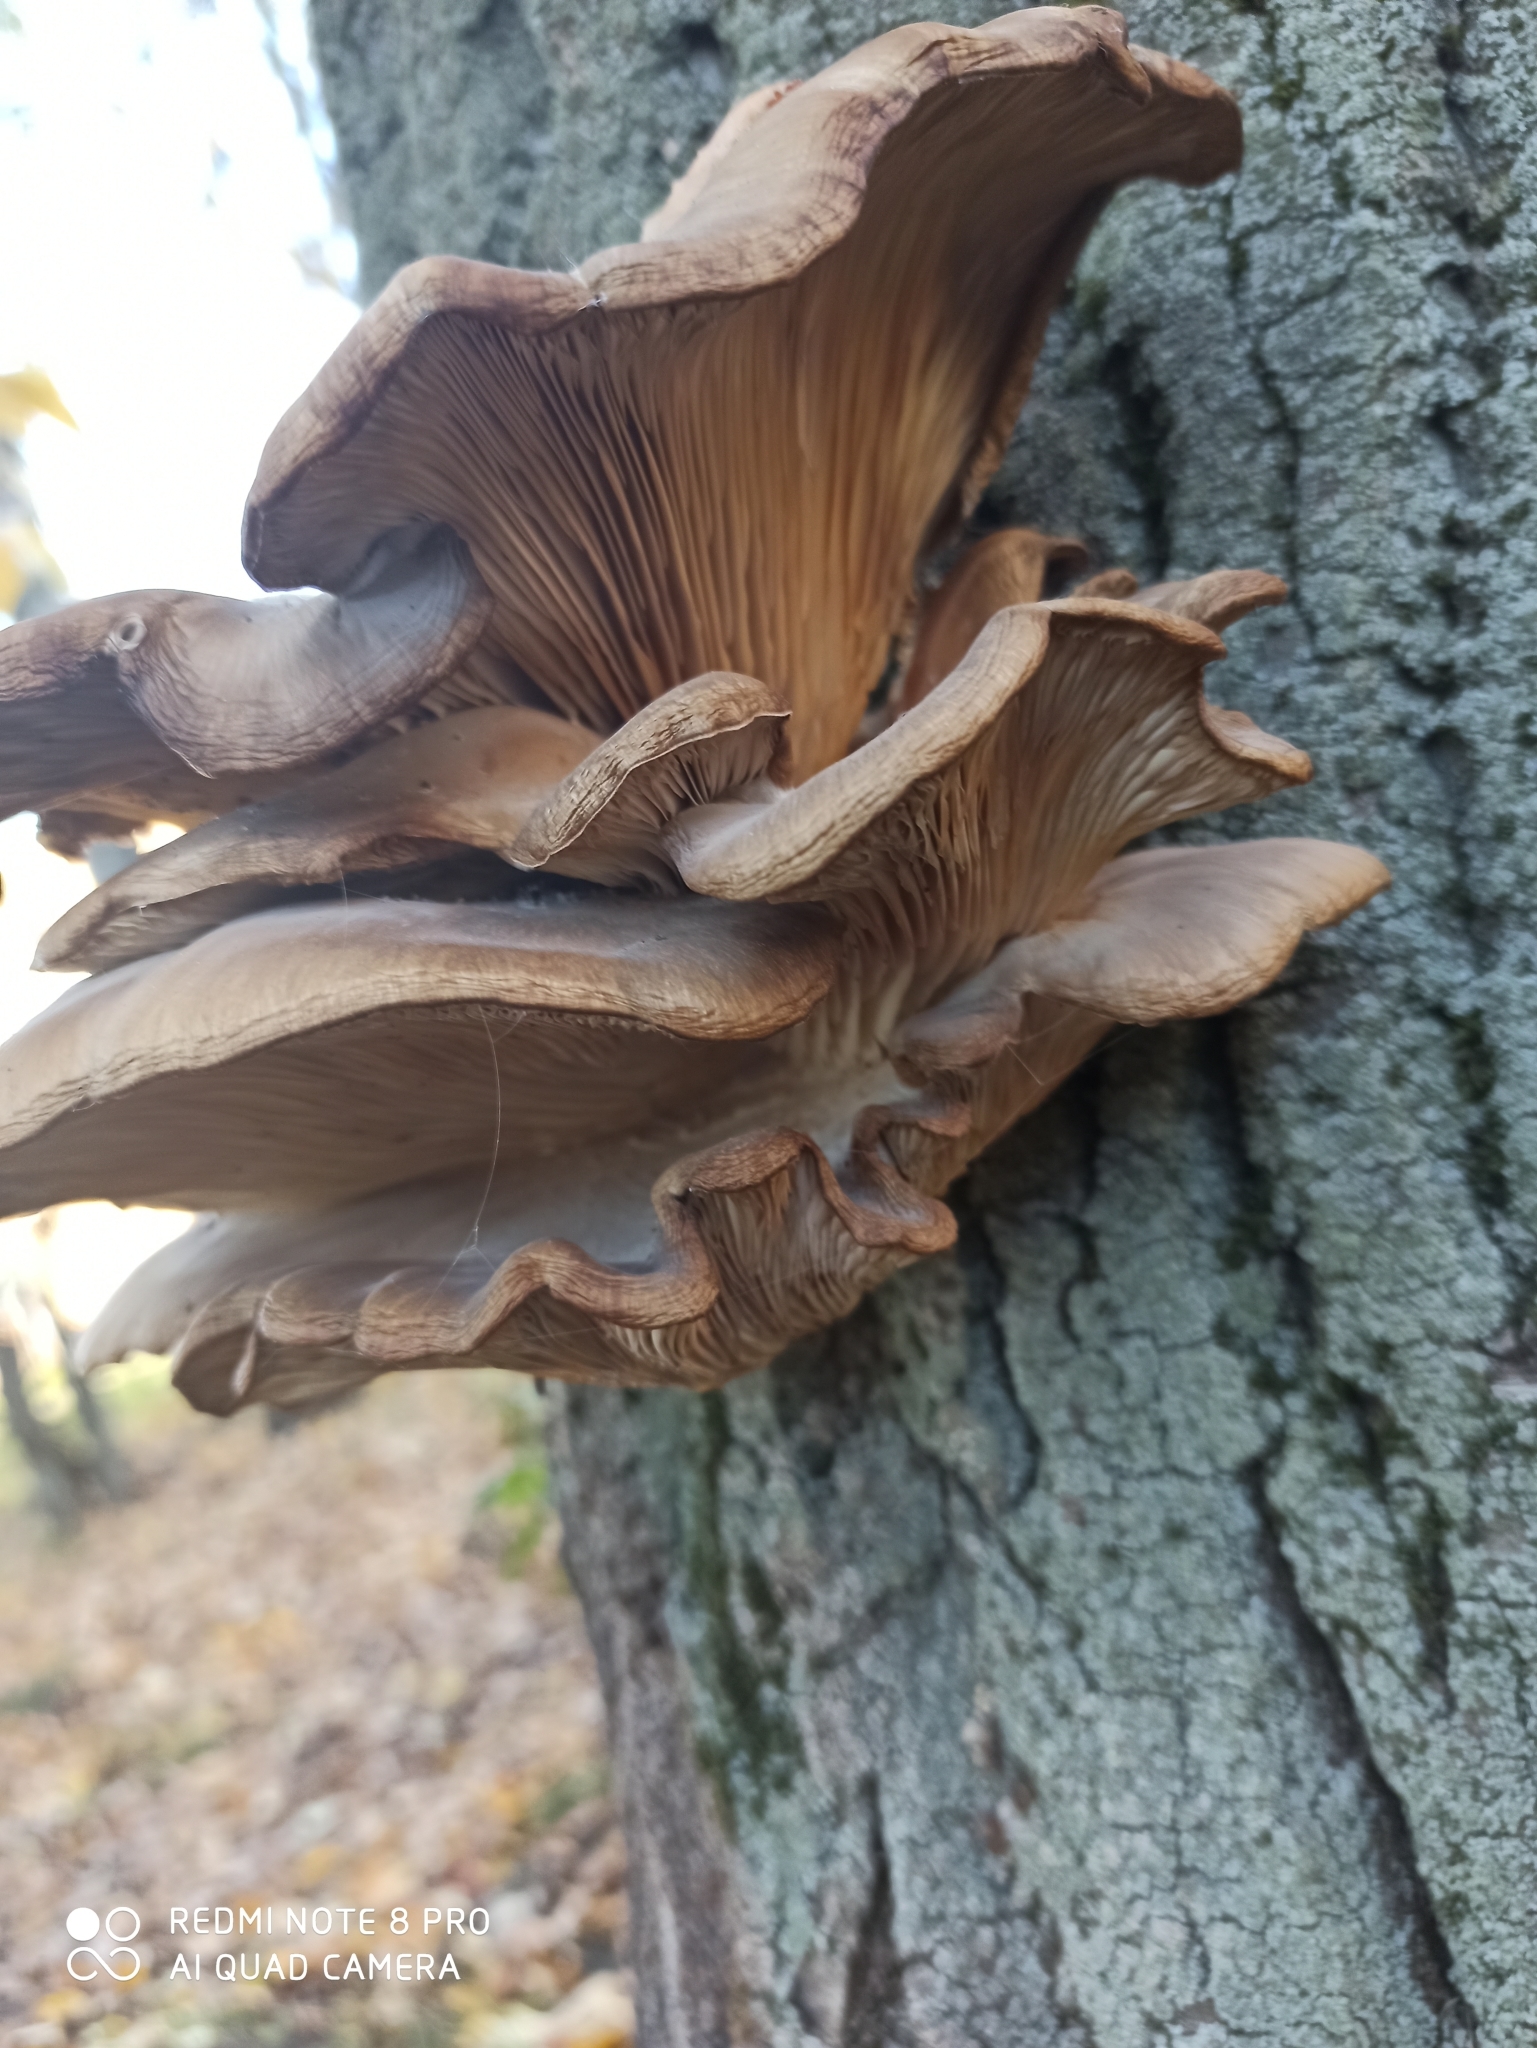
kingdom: Fungi
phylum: Basidiomycota
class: Agaricomycetes
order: Agaricales
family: Pleurotaceae
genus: Pleurotus
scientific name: Pleurotus ostreatus
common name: Oyster mushroom
